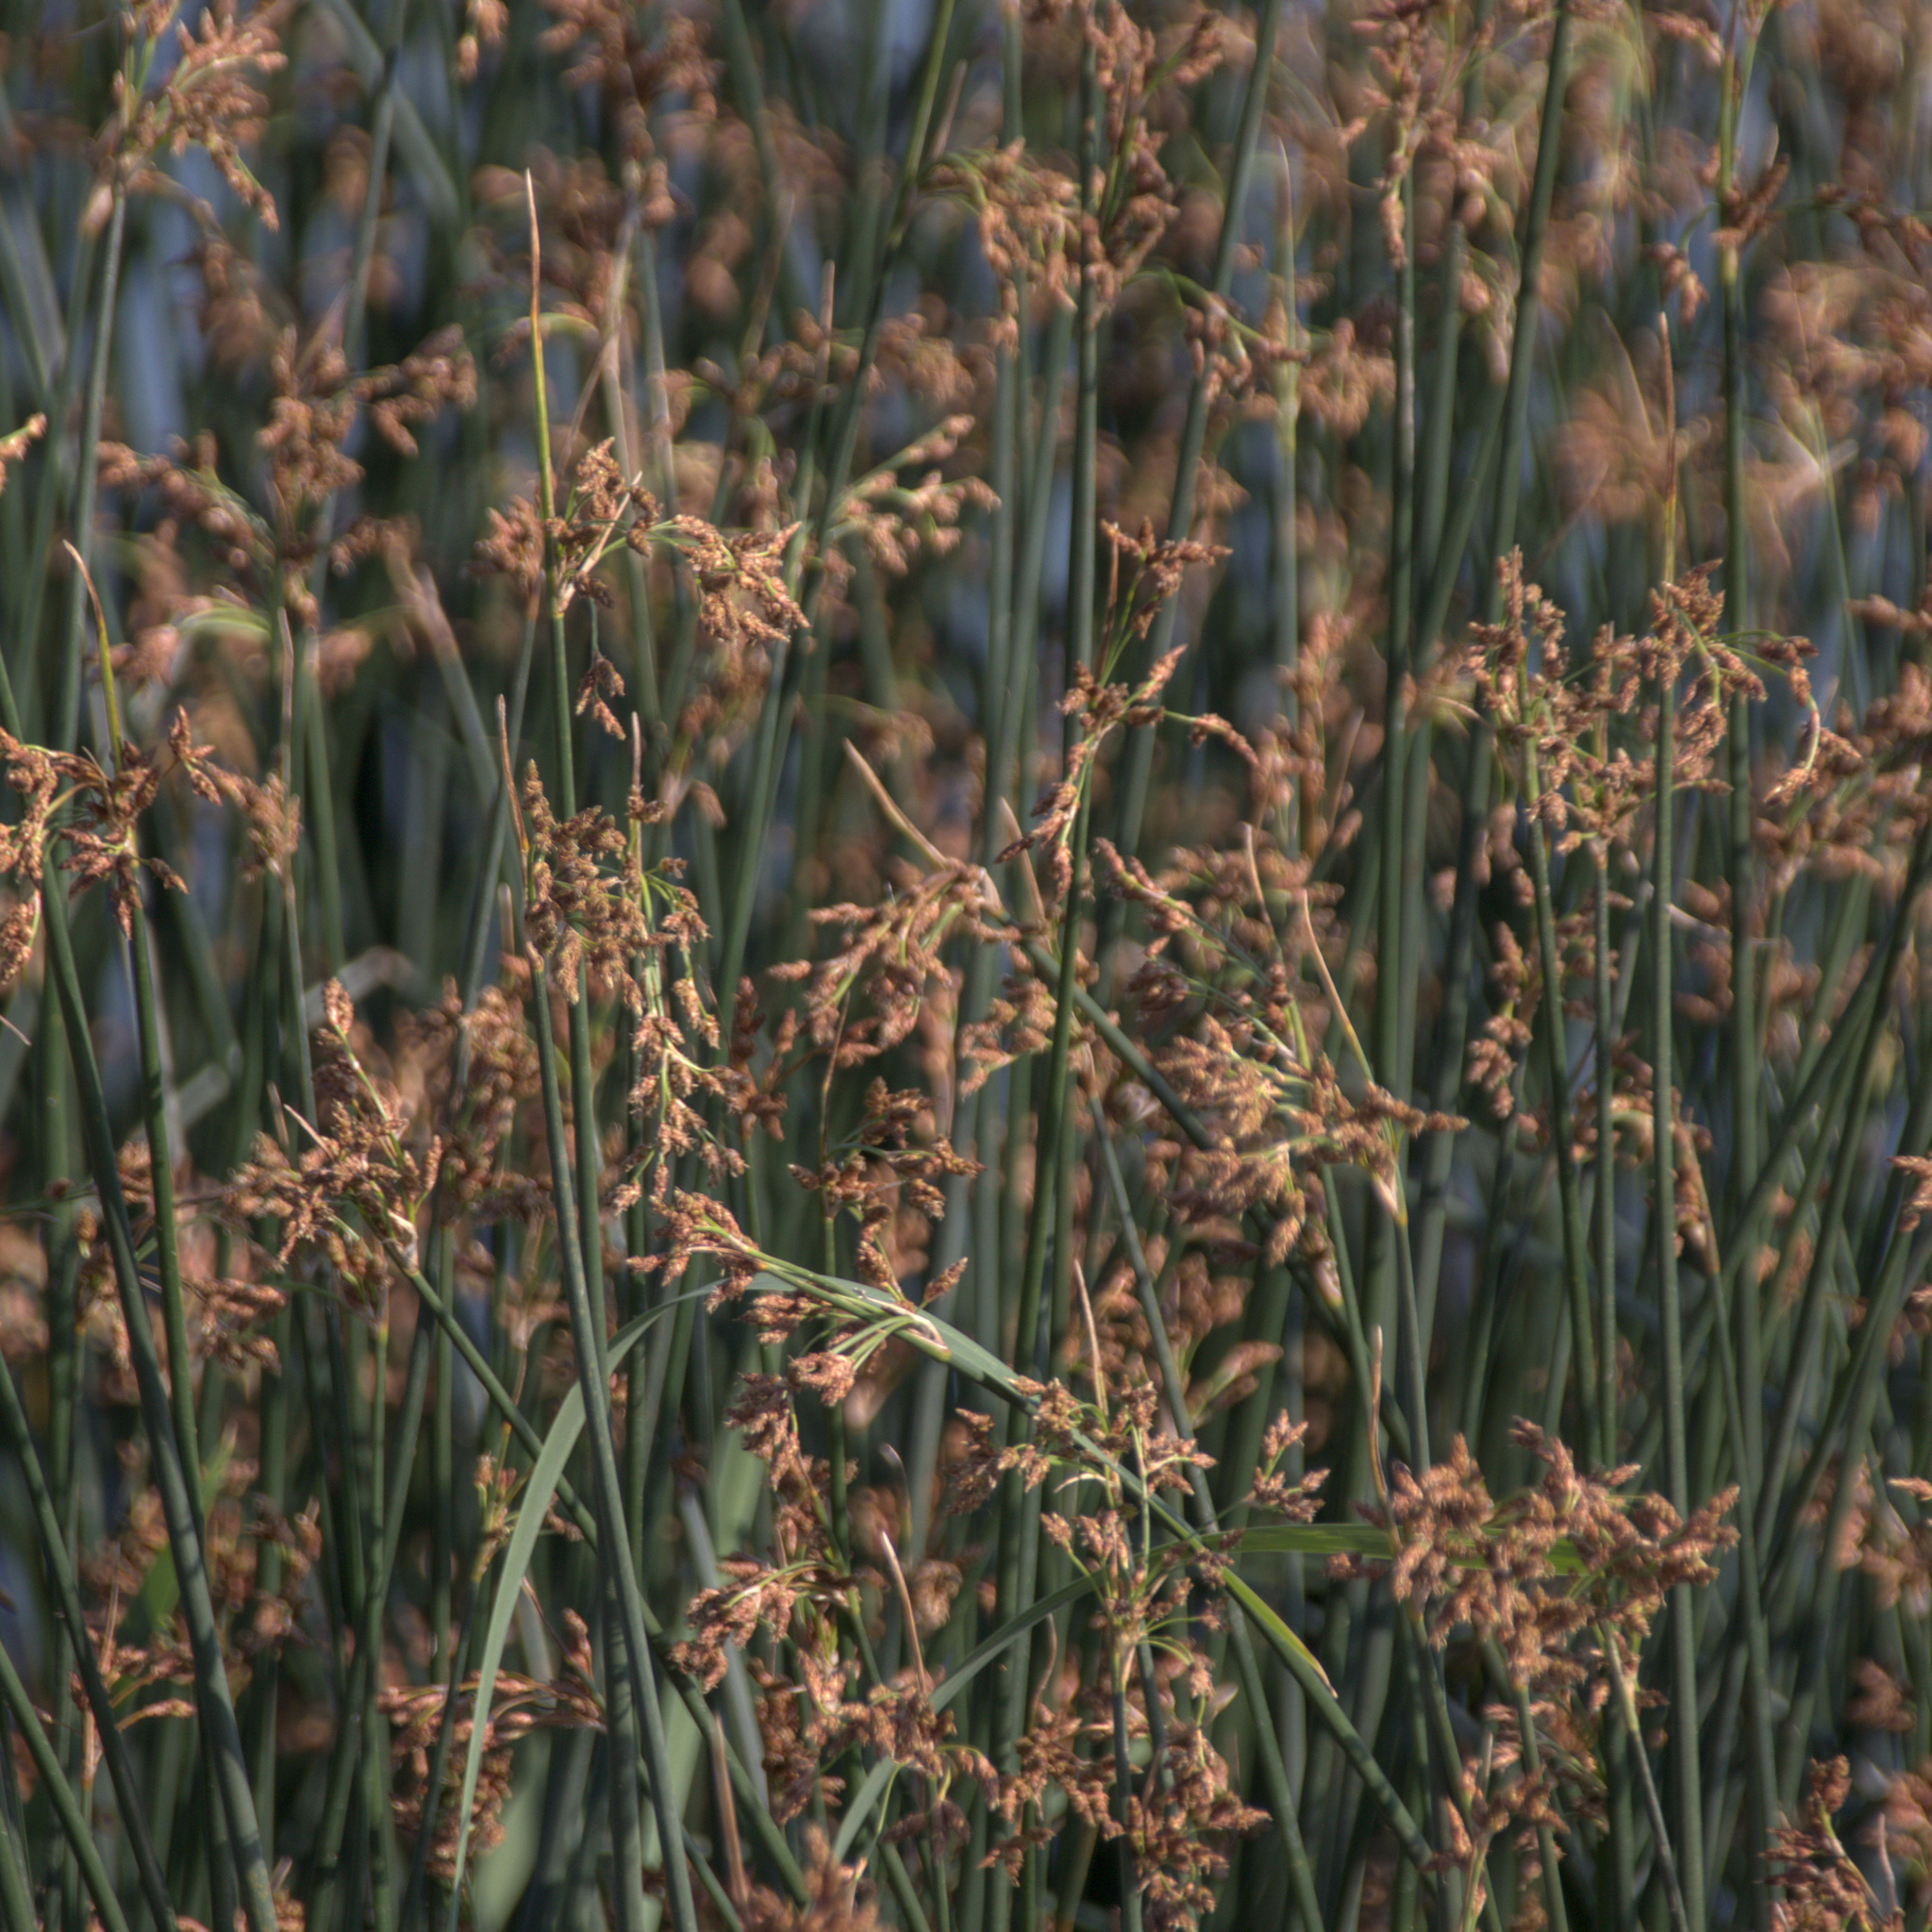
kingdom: Plantae
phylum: Tracheophyta
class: Liliopsida
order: Poales
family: Cyperaceae
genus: Schoenoplectus
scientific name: Schoenoplectus lacustris
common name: Common club-rush
